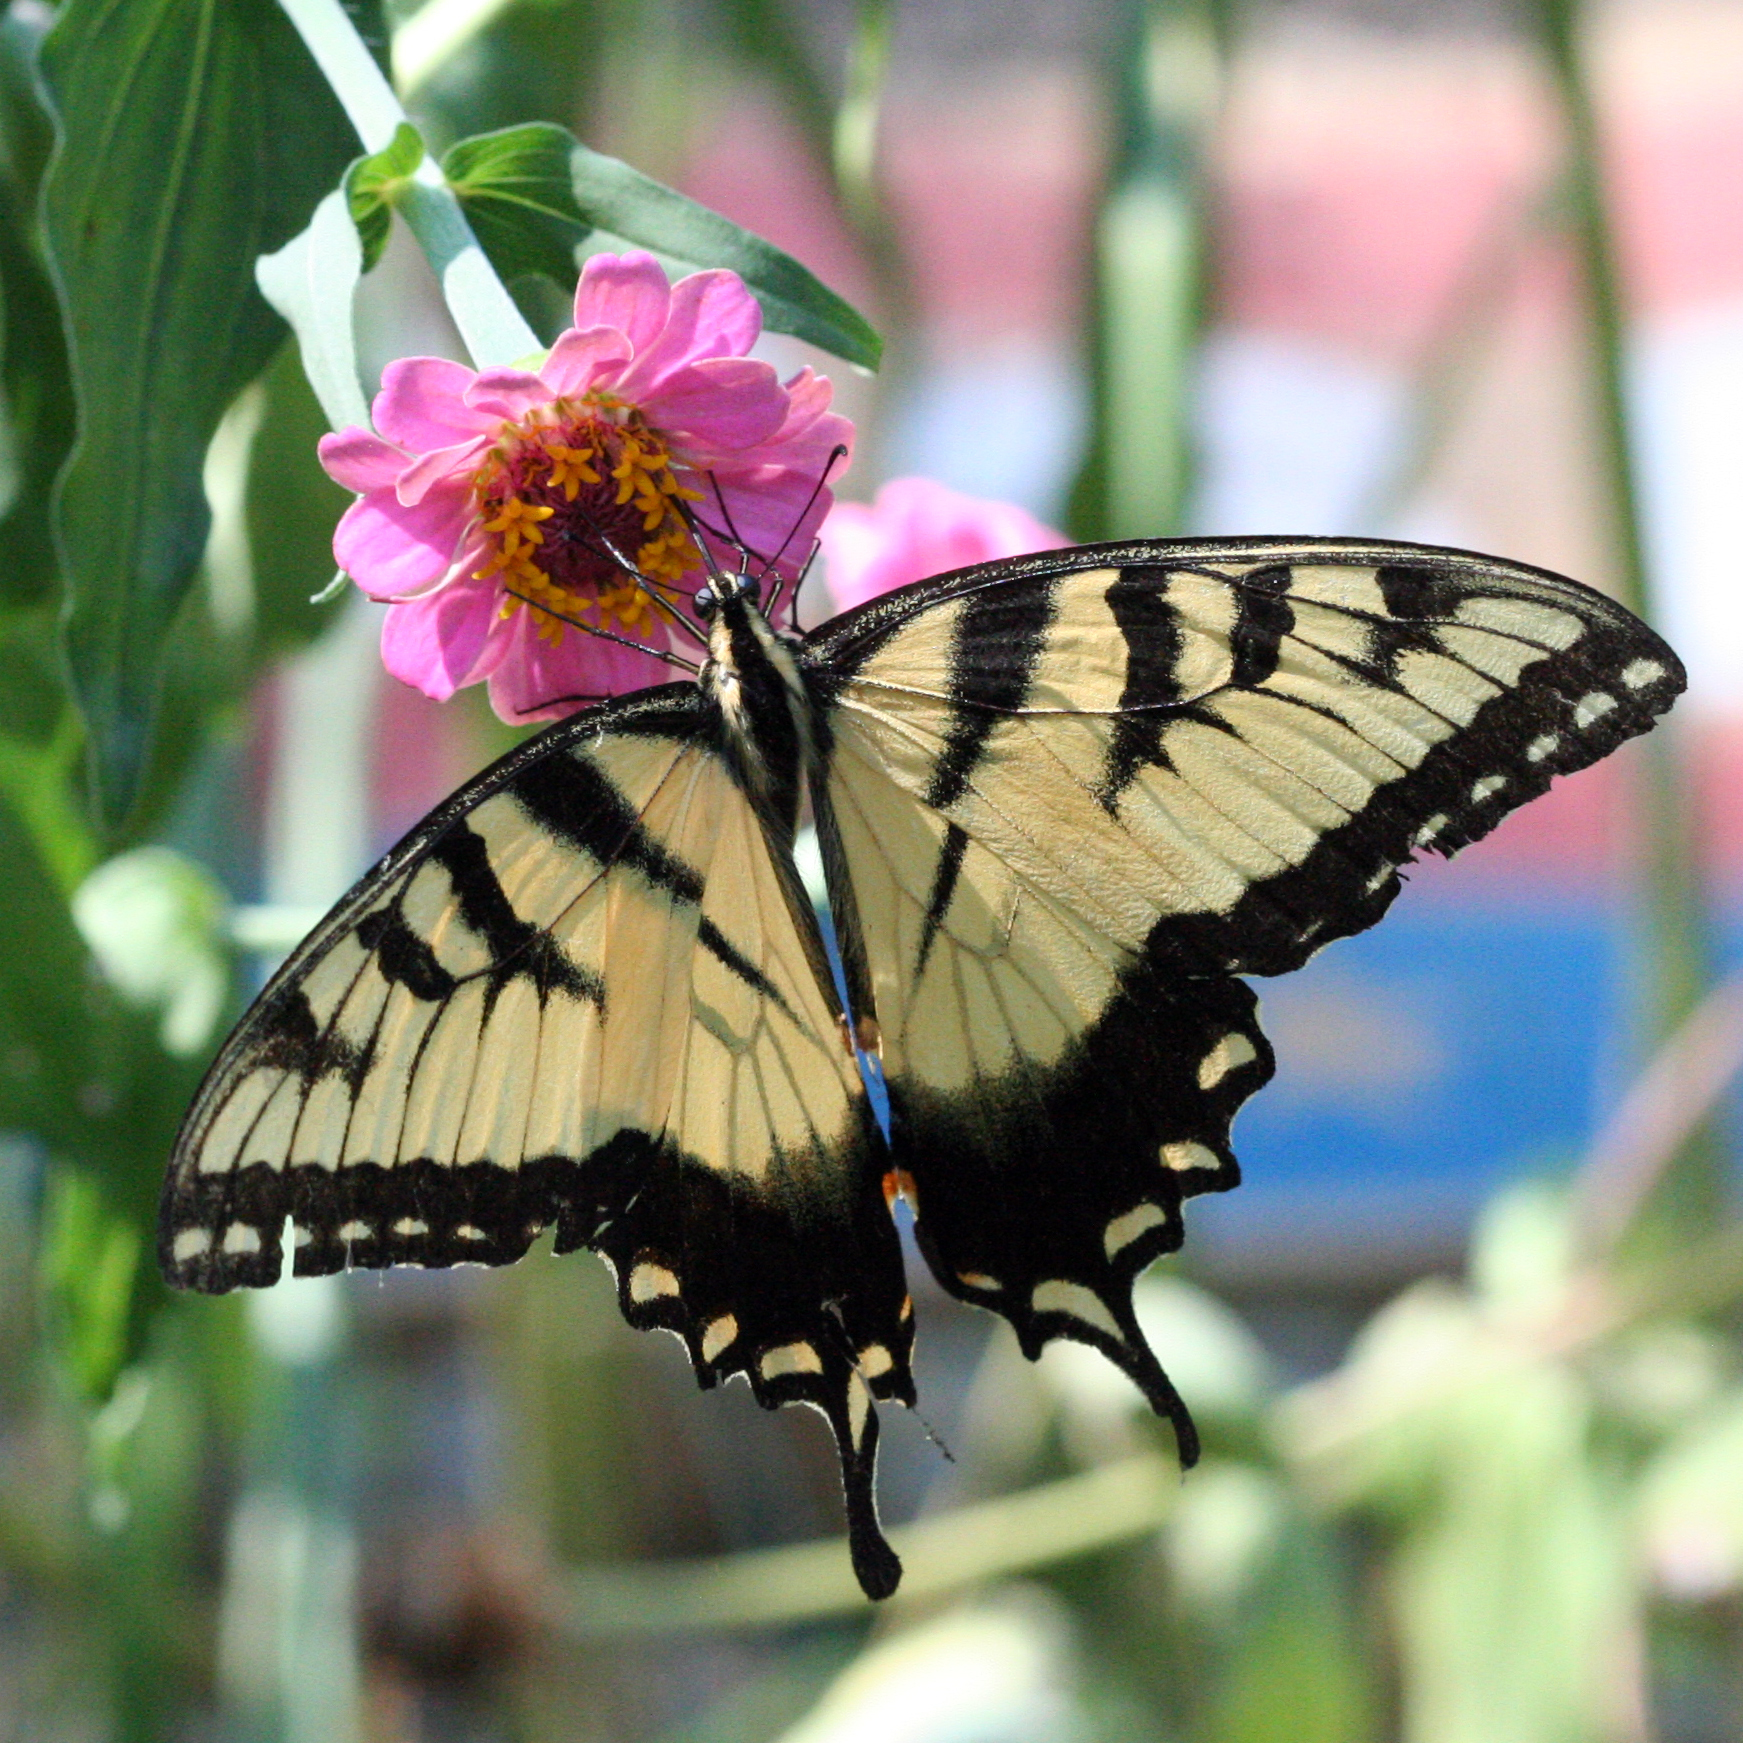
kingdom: Animalia
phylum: Arthropoda
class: Insecta
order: Lepidoptera
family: Papilionidae
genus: Papilio
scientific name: Papilio glaucus
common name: Tiger swallowtail
